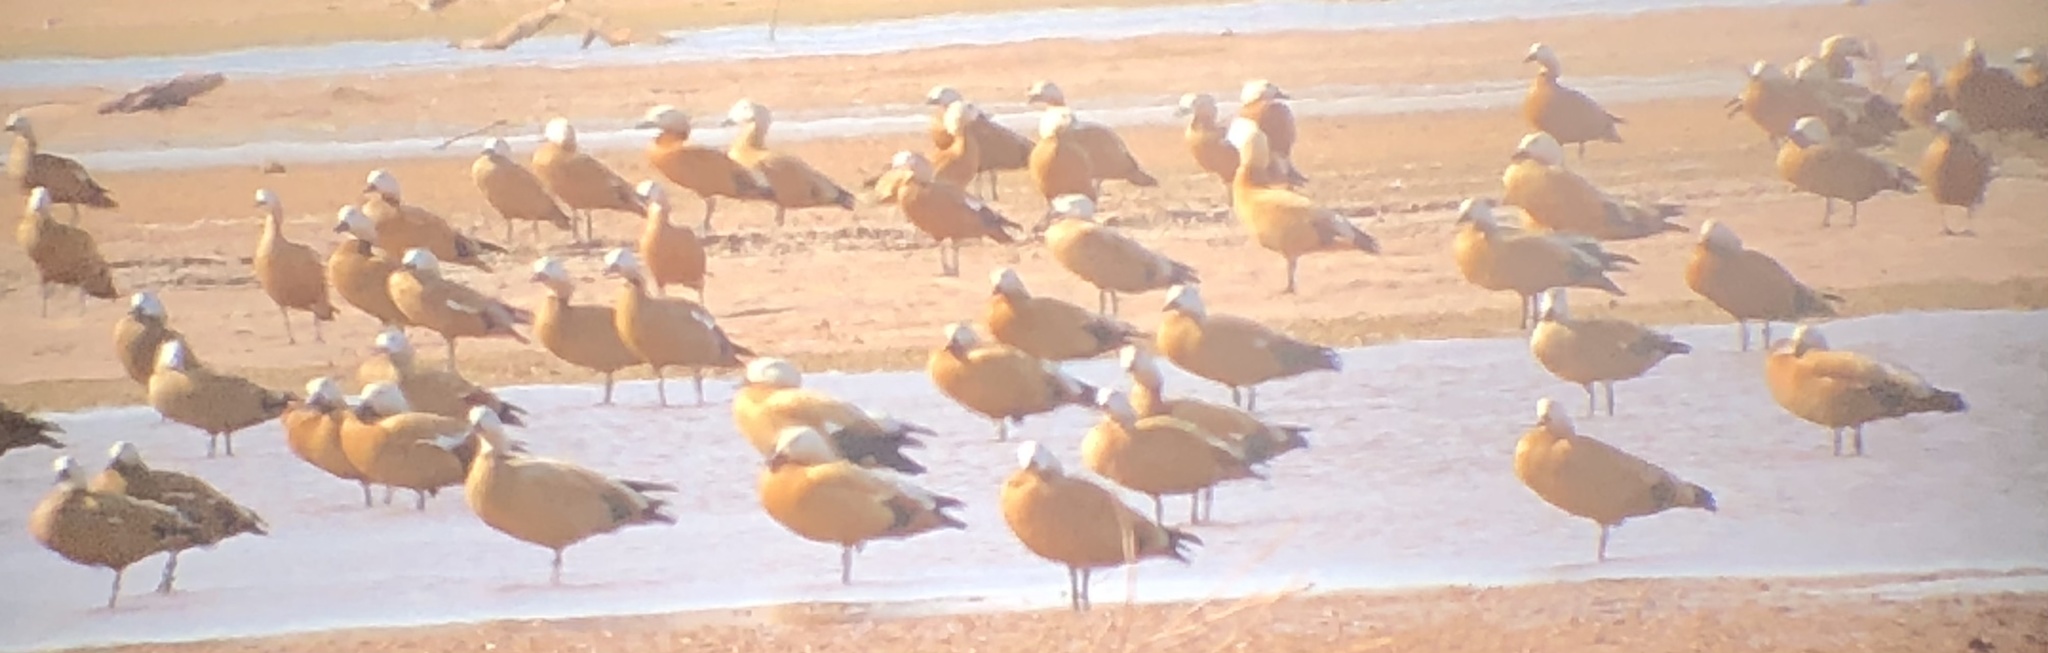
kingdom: Animalia
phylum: Chordata
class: Aves
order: Anseriformes
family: Anatidae
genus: Tadorna
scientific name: Tadorna ferruginea
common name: Ruddy shelduck
